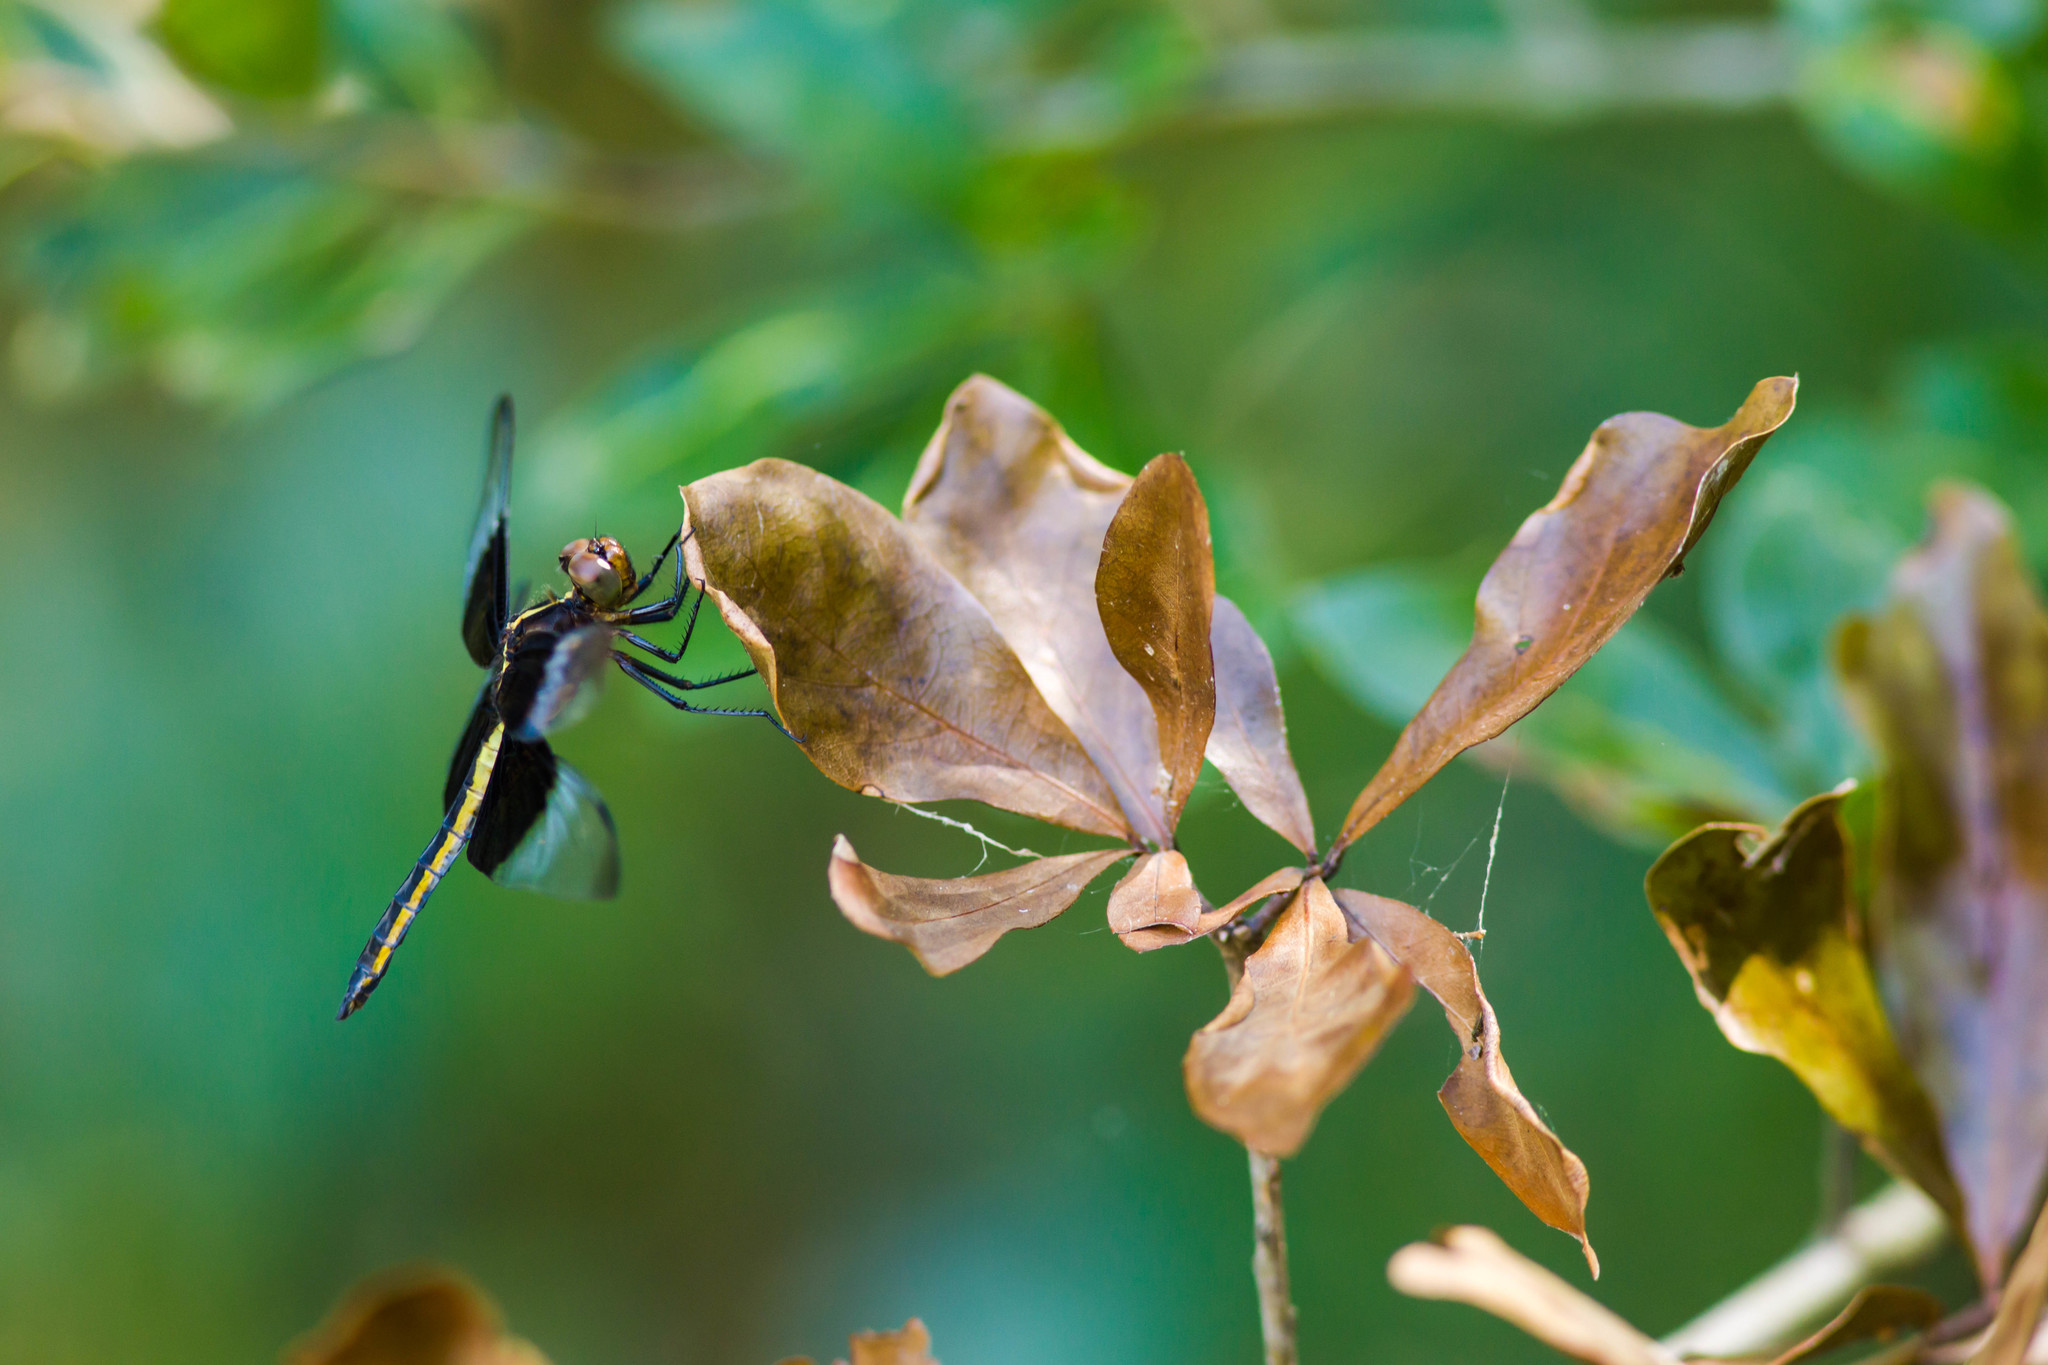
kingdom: Animalia
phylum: Arthropoda
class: Insecta
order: Odonata
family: Libellulidae
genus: Libellula
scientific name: Libellula luctuosa
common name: Widow skimmer
